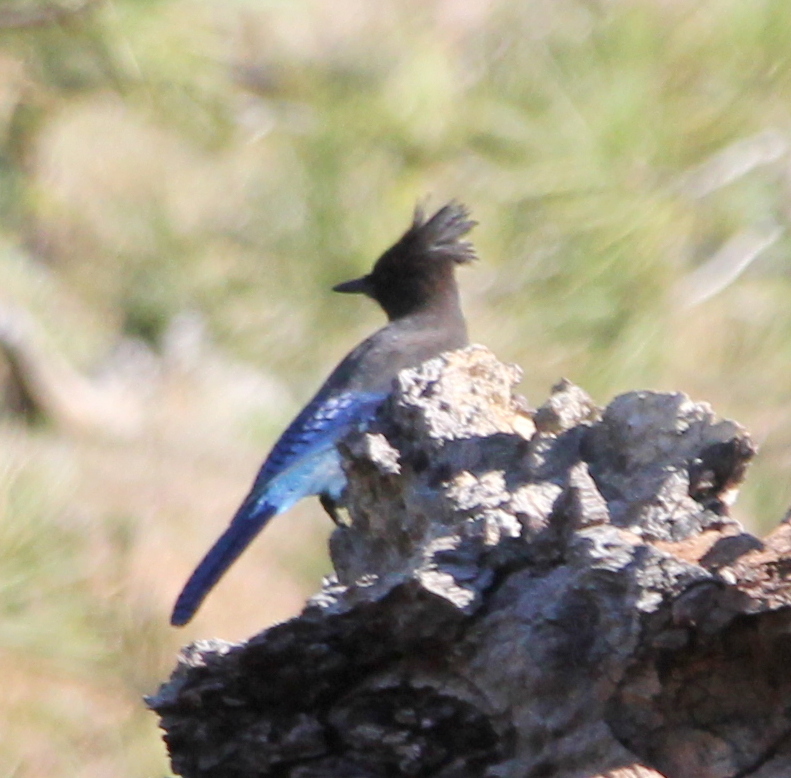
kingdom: Animalia
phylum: Chordata
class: Aves
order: Passeriformes
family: Corvidae
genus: Cyanocitta
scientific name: Cyanocitta stelleri
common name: Steller's jay
